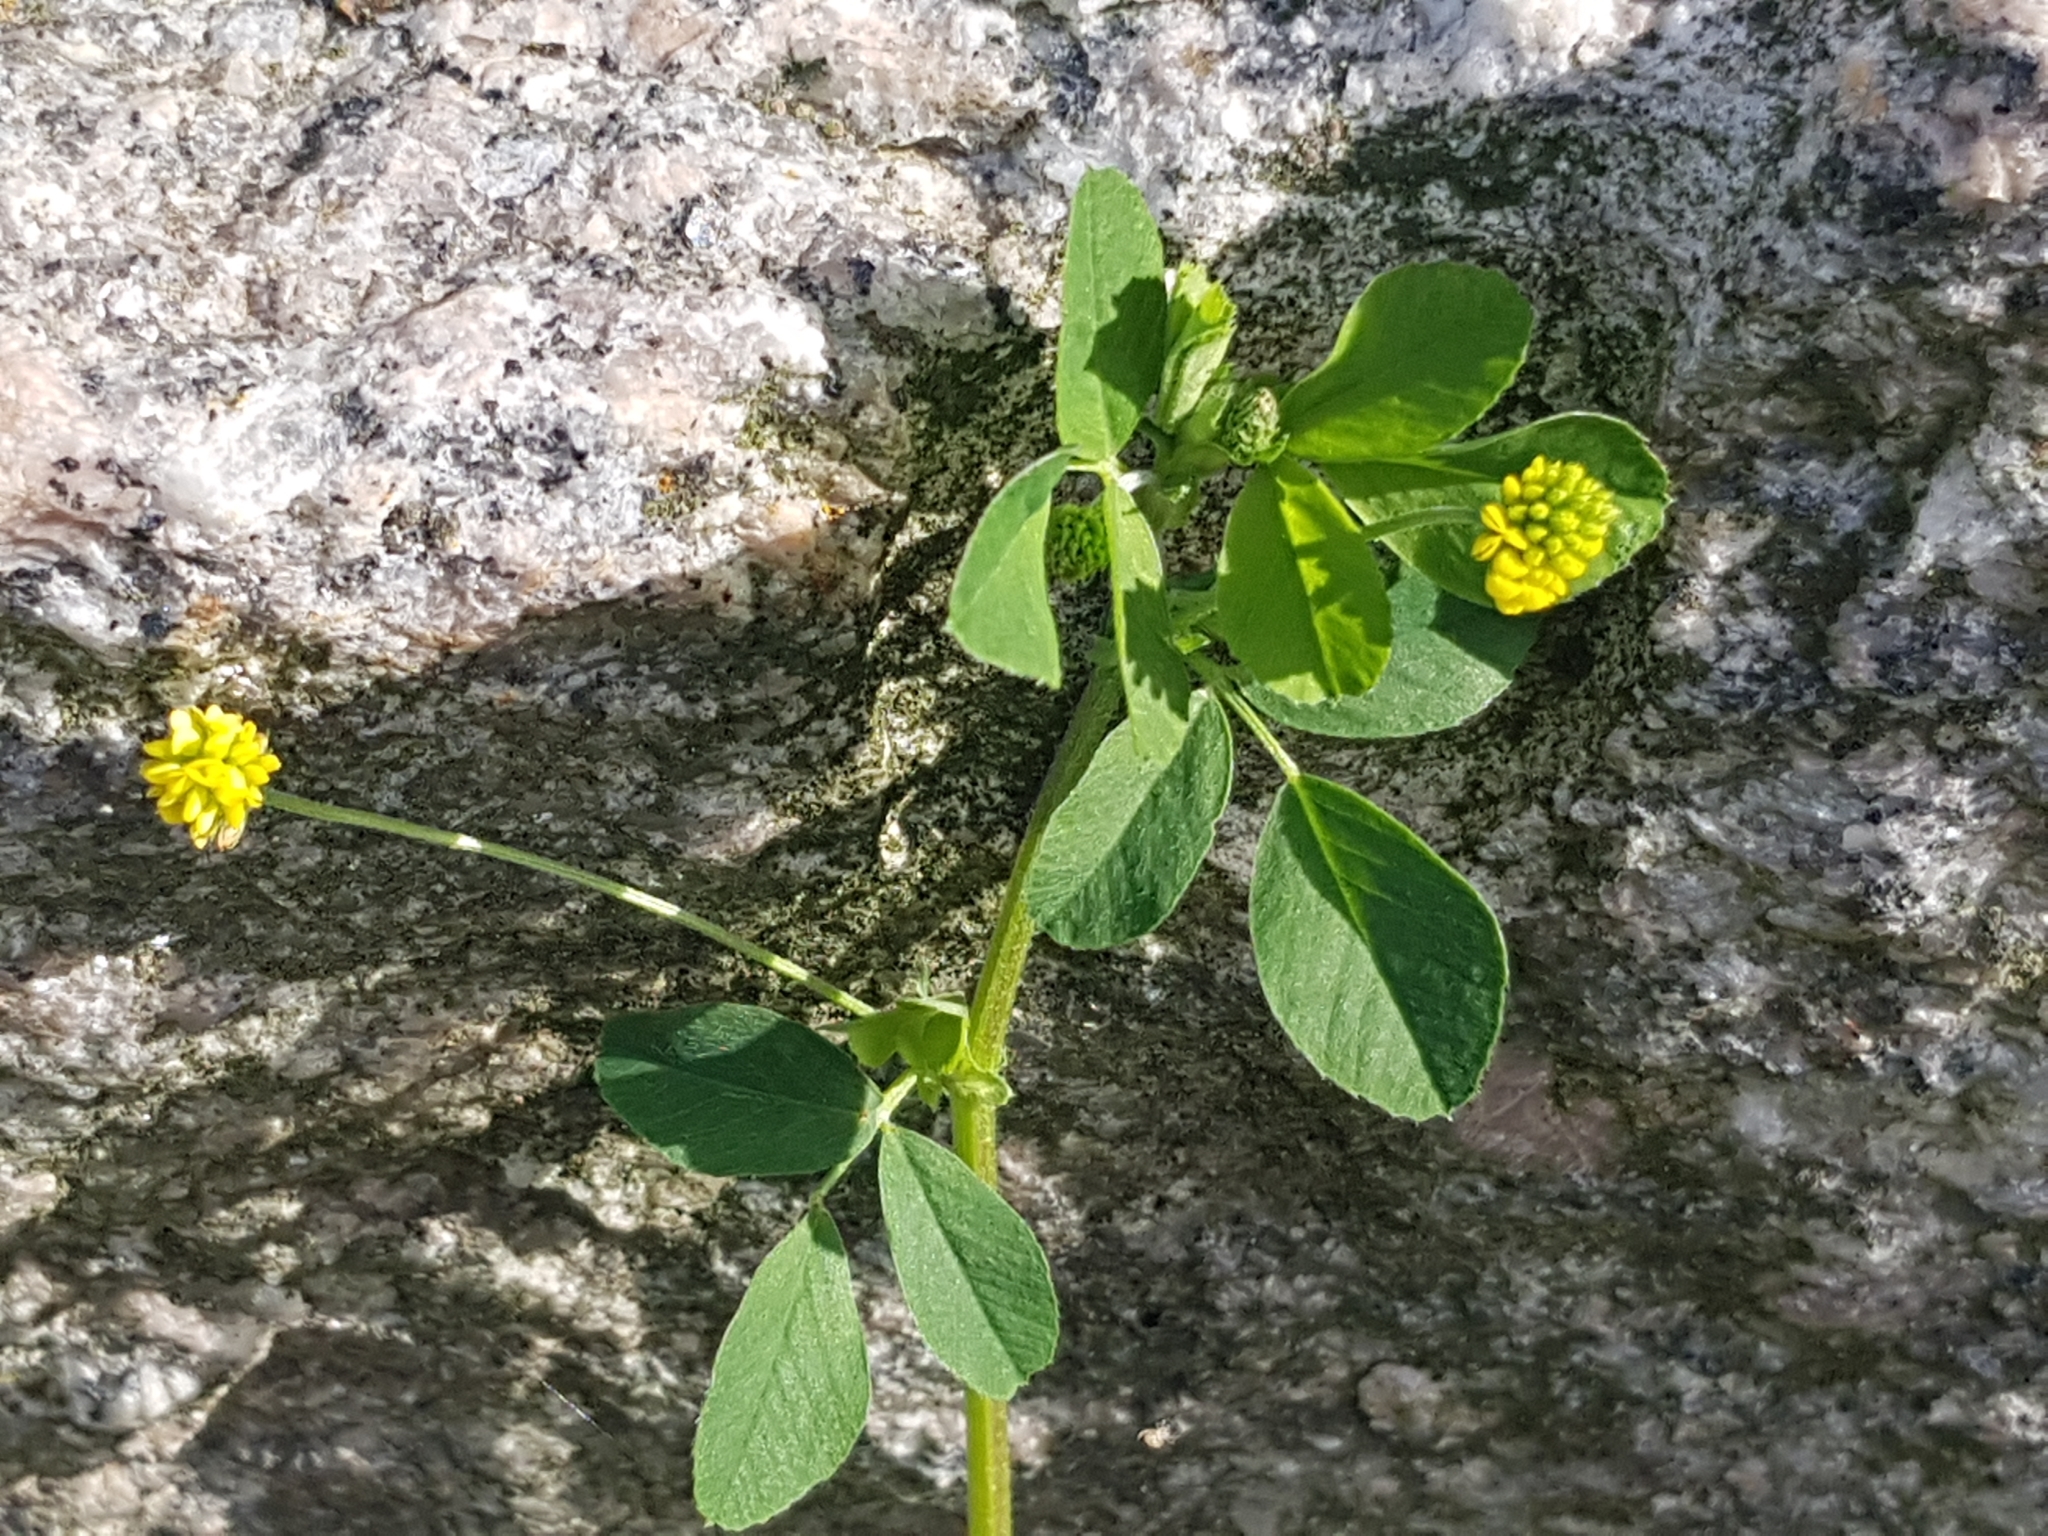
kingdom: Plantae
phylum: Tracheophyta
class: Magnoliopsida
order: Fabales
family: Fabaceae
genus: Medicago
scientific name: Medicago lupulina
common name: Black medick
